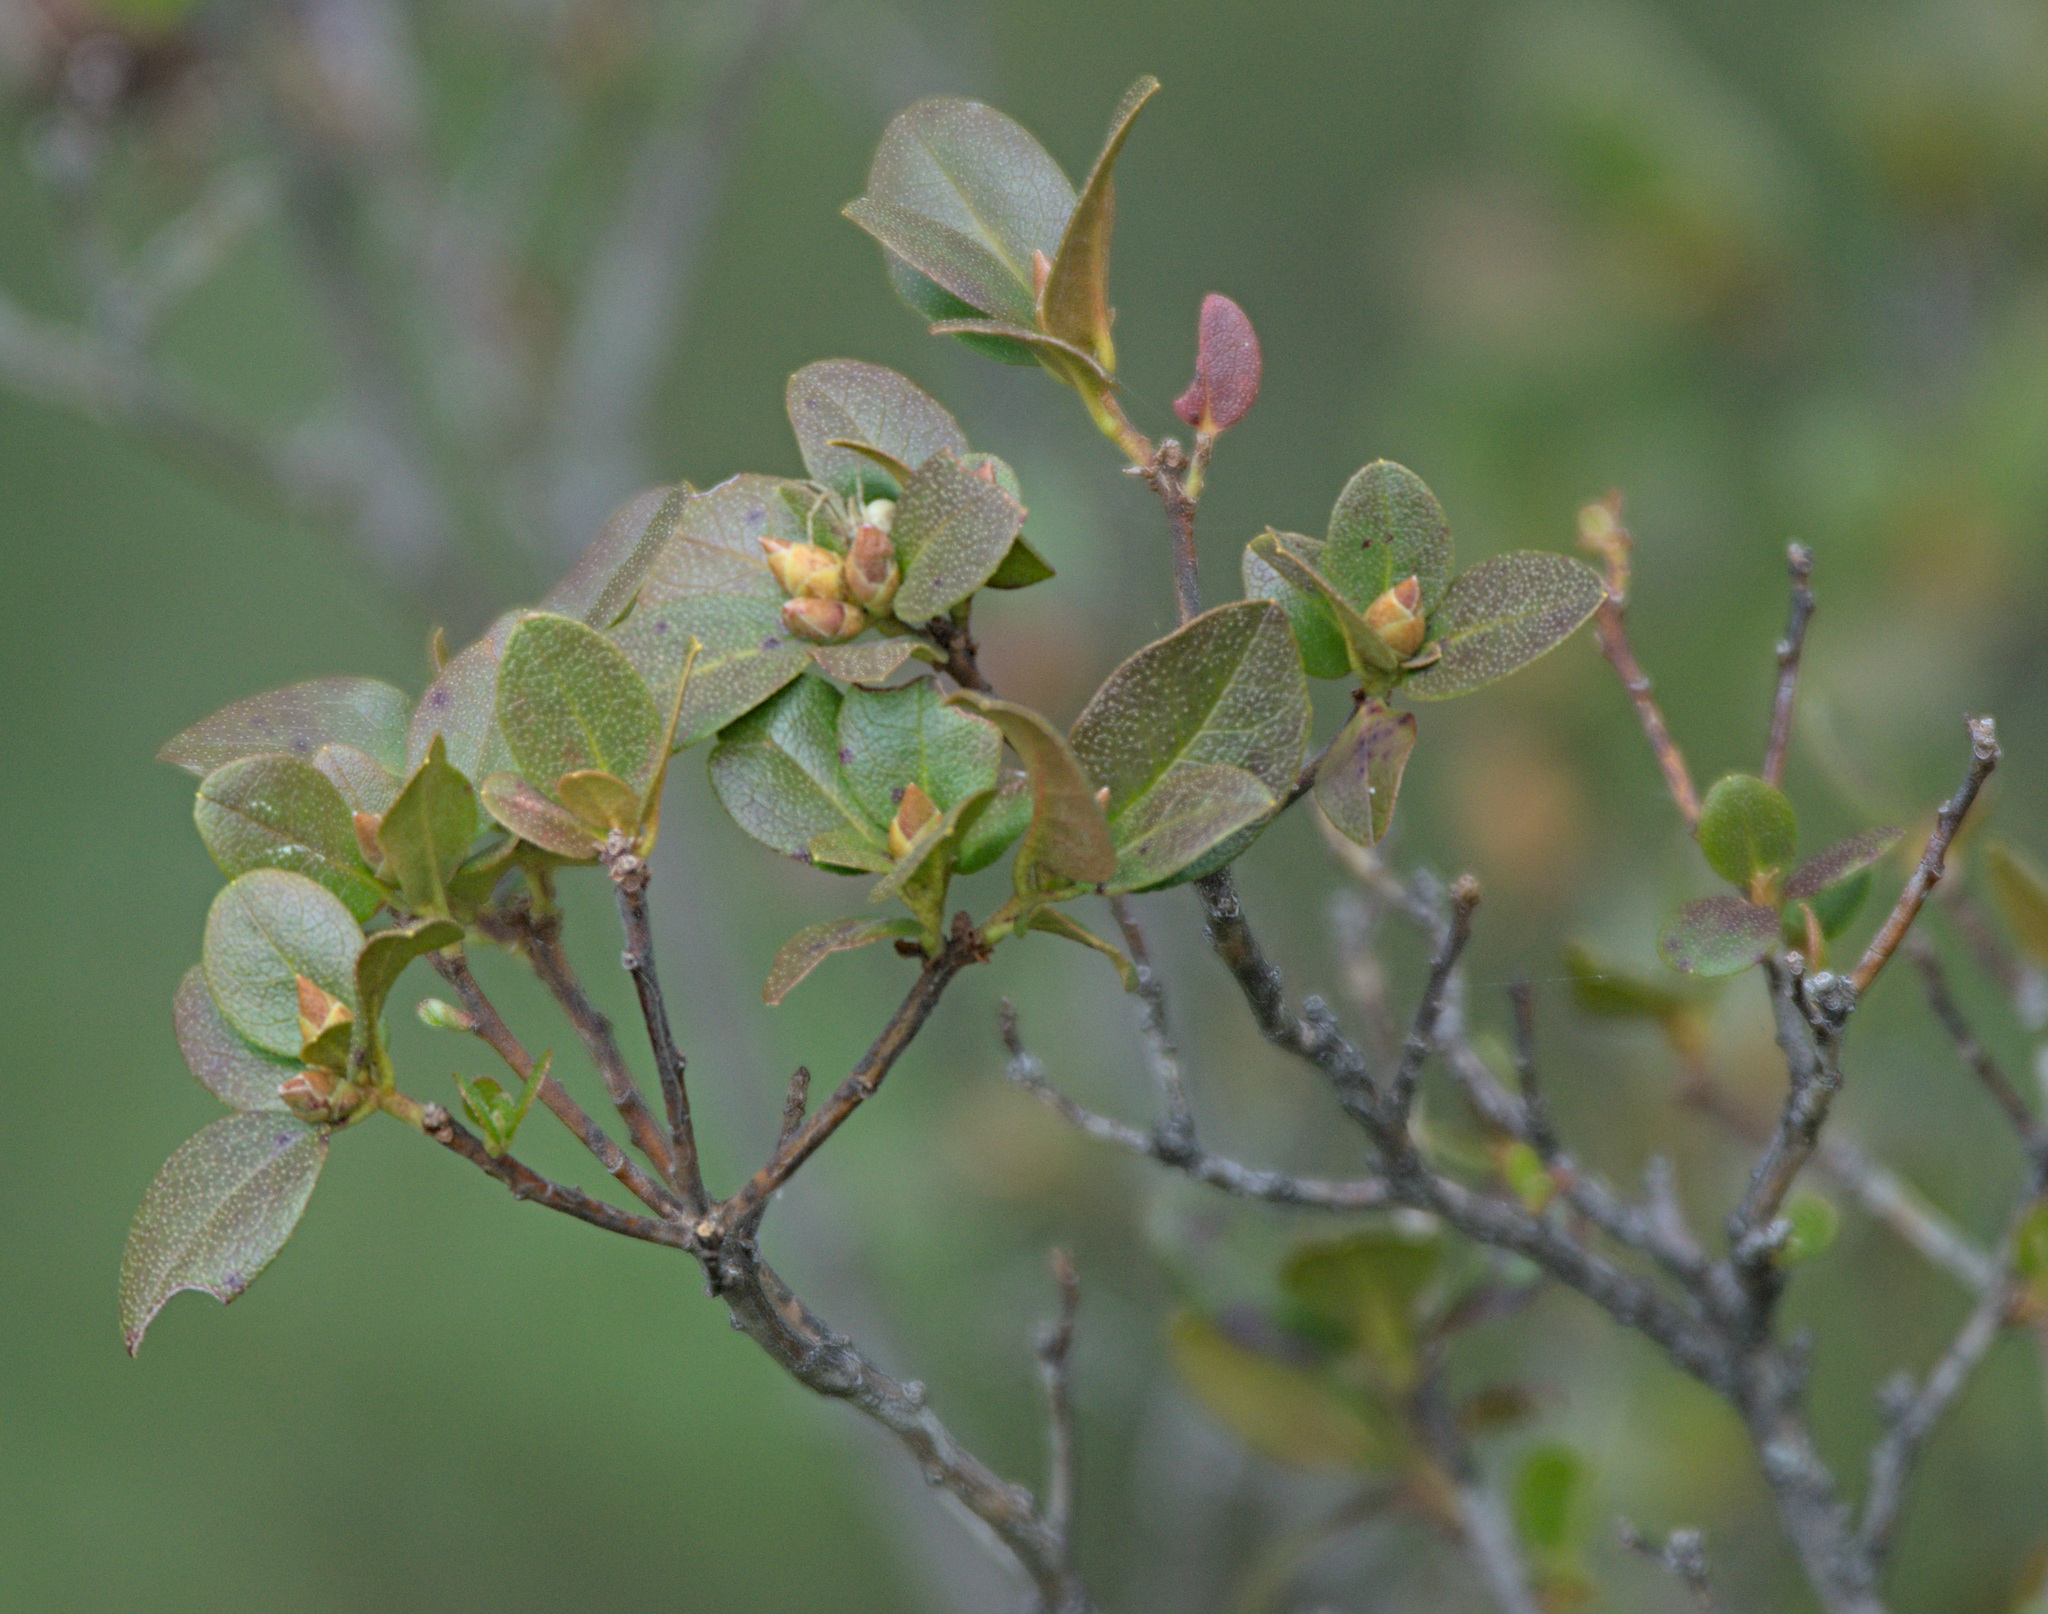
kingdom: Plantae
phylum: Tracheophyta
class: Magnoliopsida
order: Ericales
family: Ericaceae
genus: Rhododendron
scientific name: Rhododendron dauricum
